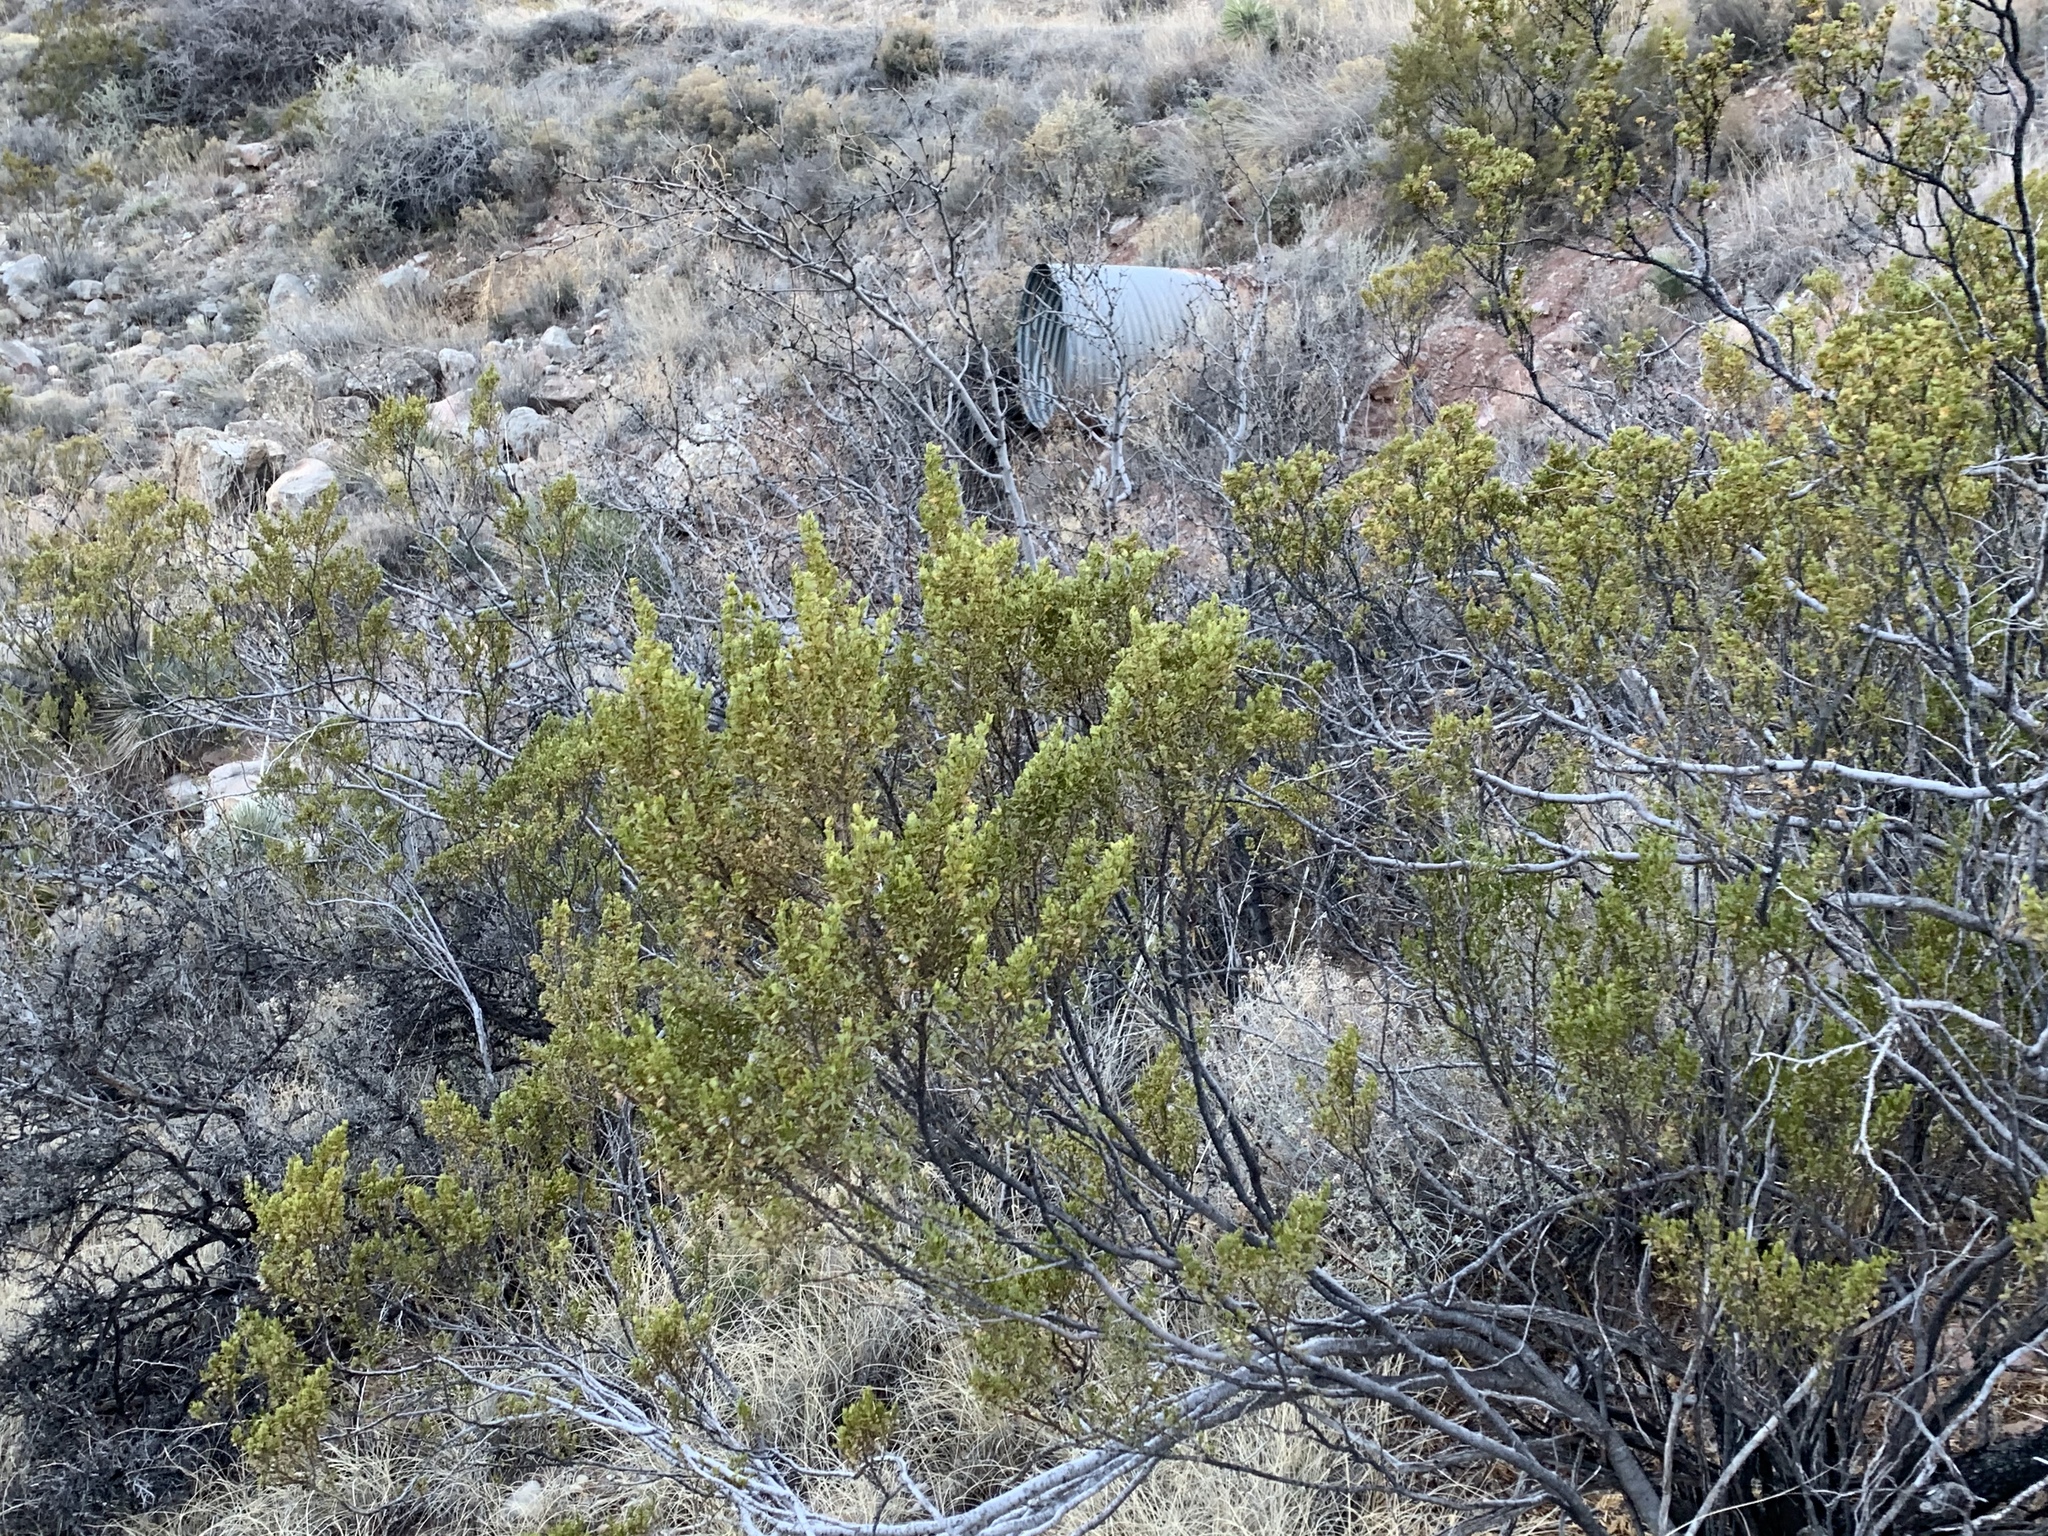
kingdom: Plantae
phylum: Tracheophyta
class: Magnoliopsida
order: Zygophyllales
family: Zygophyllaceae
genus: Larrea
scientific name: Larrea tridentata
